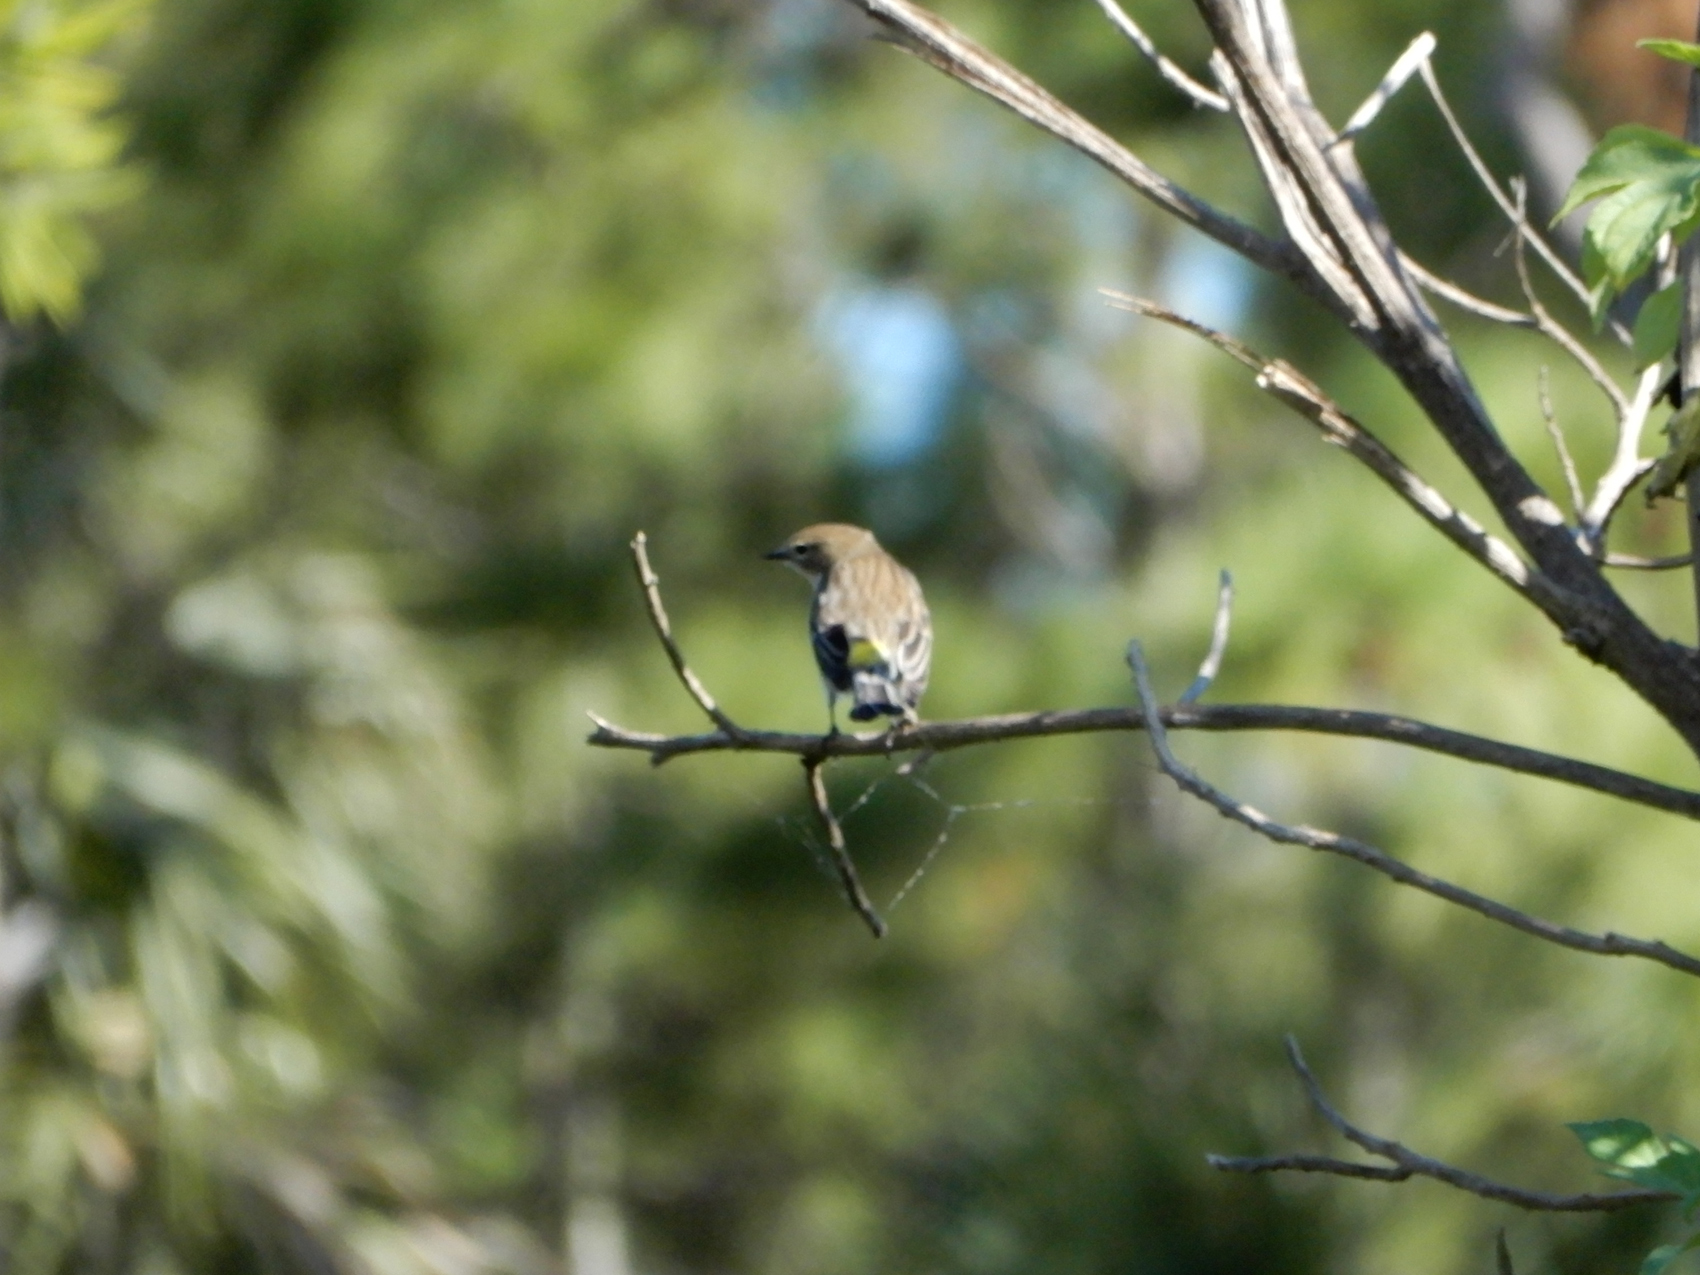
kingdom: Animalia
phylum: Chordata
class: Aves
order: Passeriformes
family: Parulidae
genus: Setophaga
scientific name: Setophaga coronata
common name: Myrtle warbler
